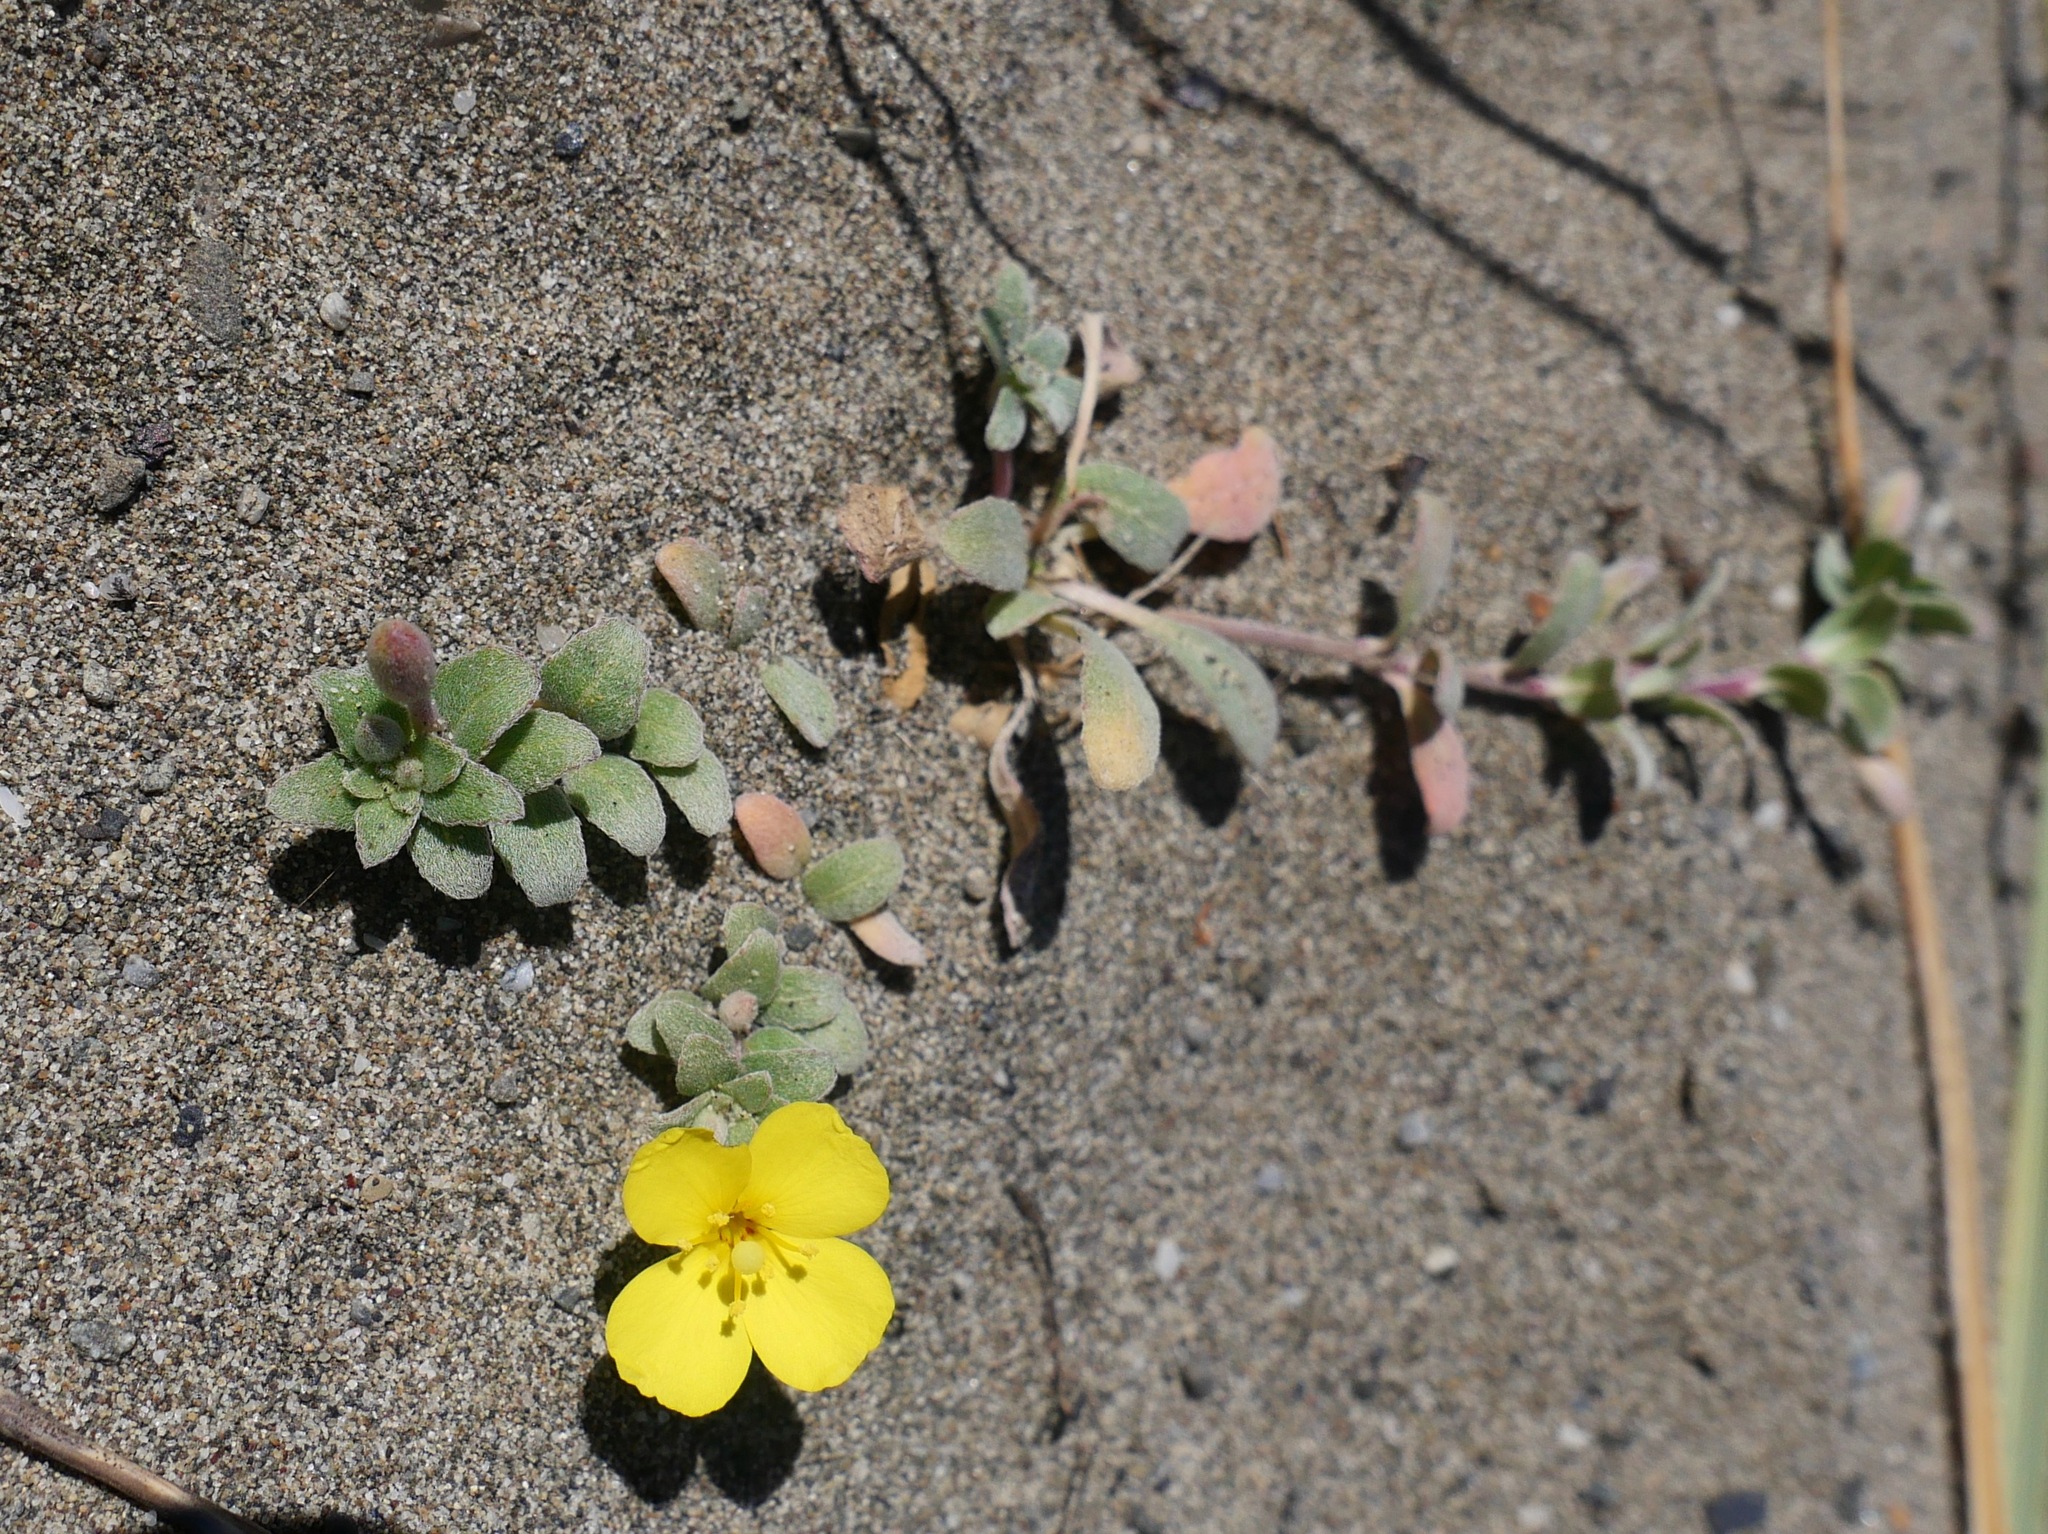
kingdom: Plantae
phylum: Tracheophyta
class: Magnoliopsida
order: Myrtales
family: Onagraceae
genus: Camissoniopsis
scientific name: Camissoniopsis cheiranthifolia
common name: Beach suncup
